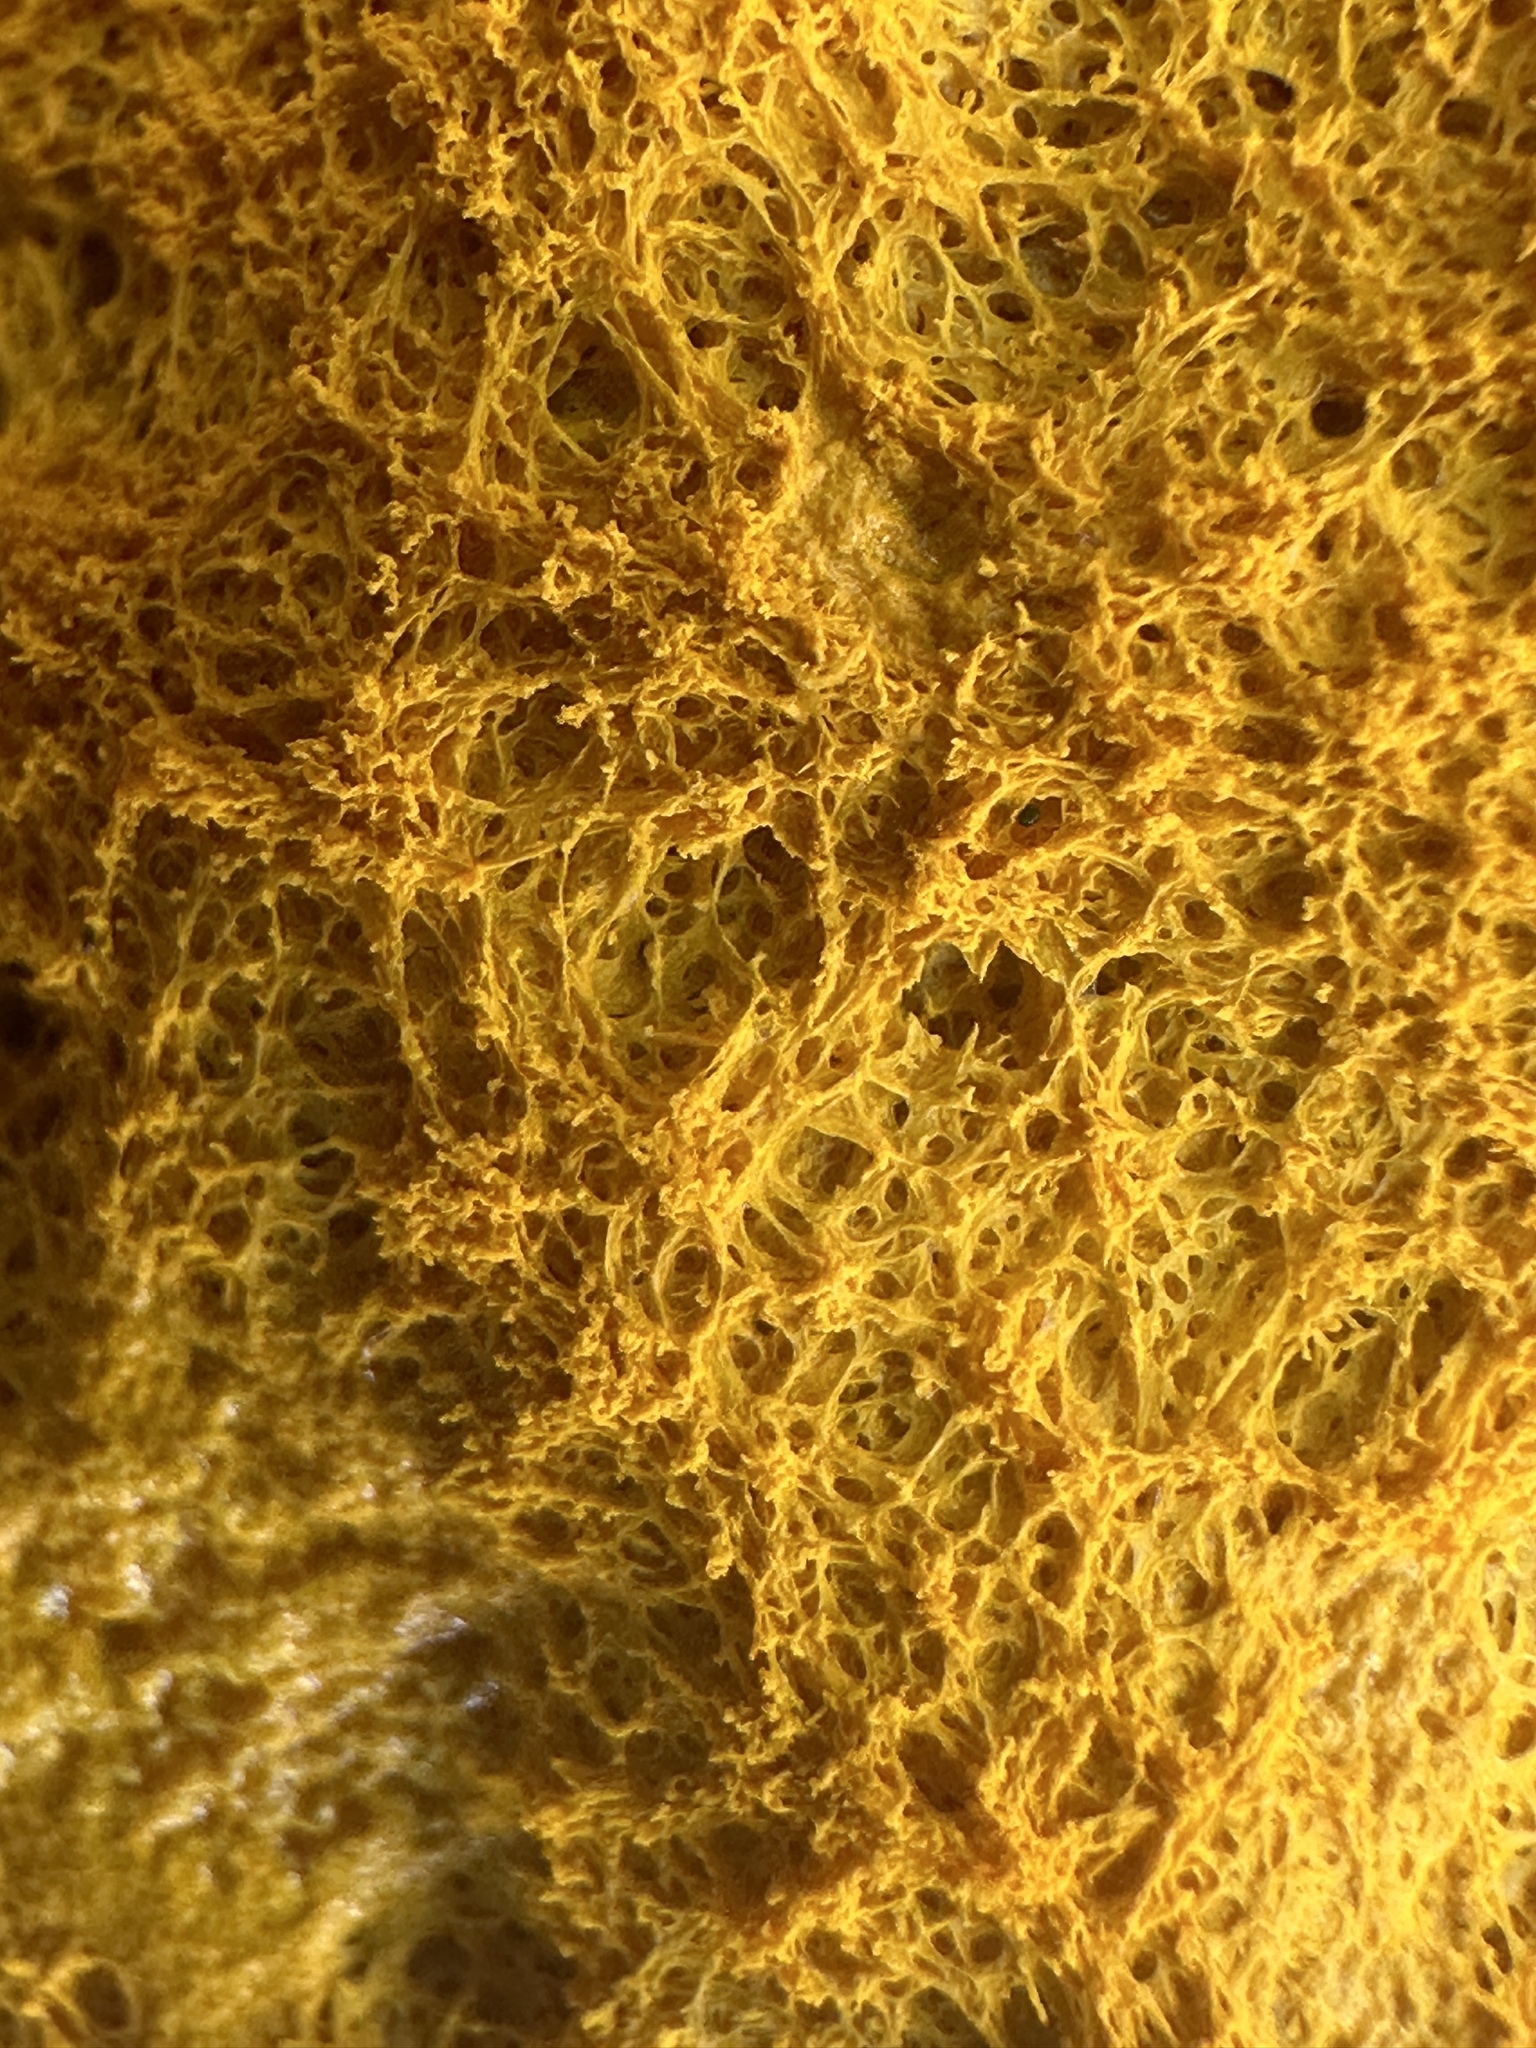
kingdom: Protozoa
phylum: Mycetozoa
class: Myxomycetes
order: Physarales
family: Physaraceae
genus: Fuligo
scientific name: Fuligo septica
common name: Dog vomit slime mold
